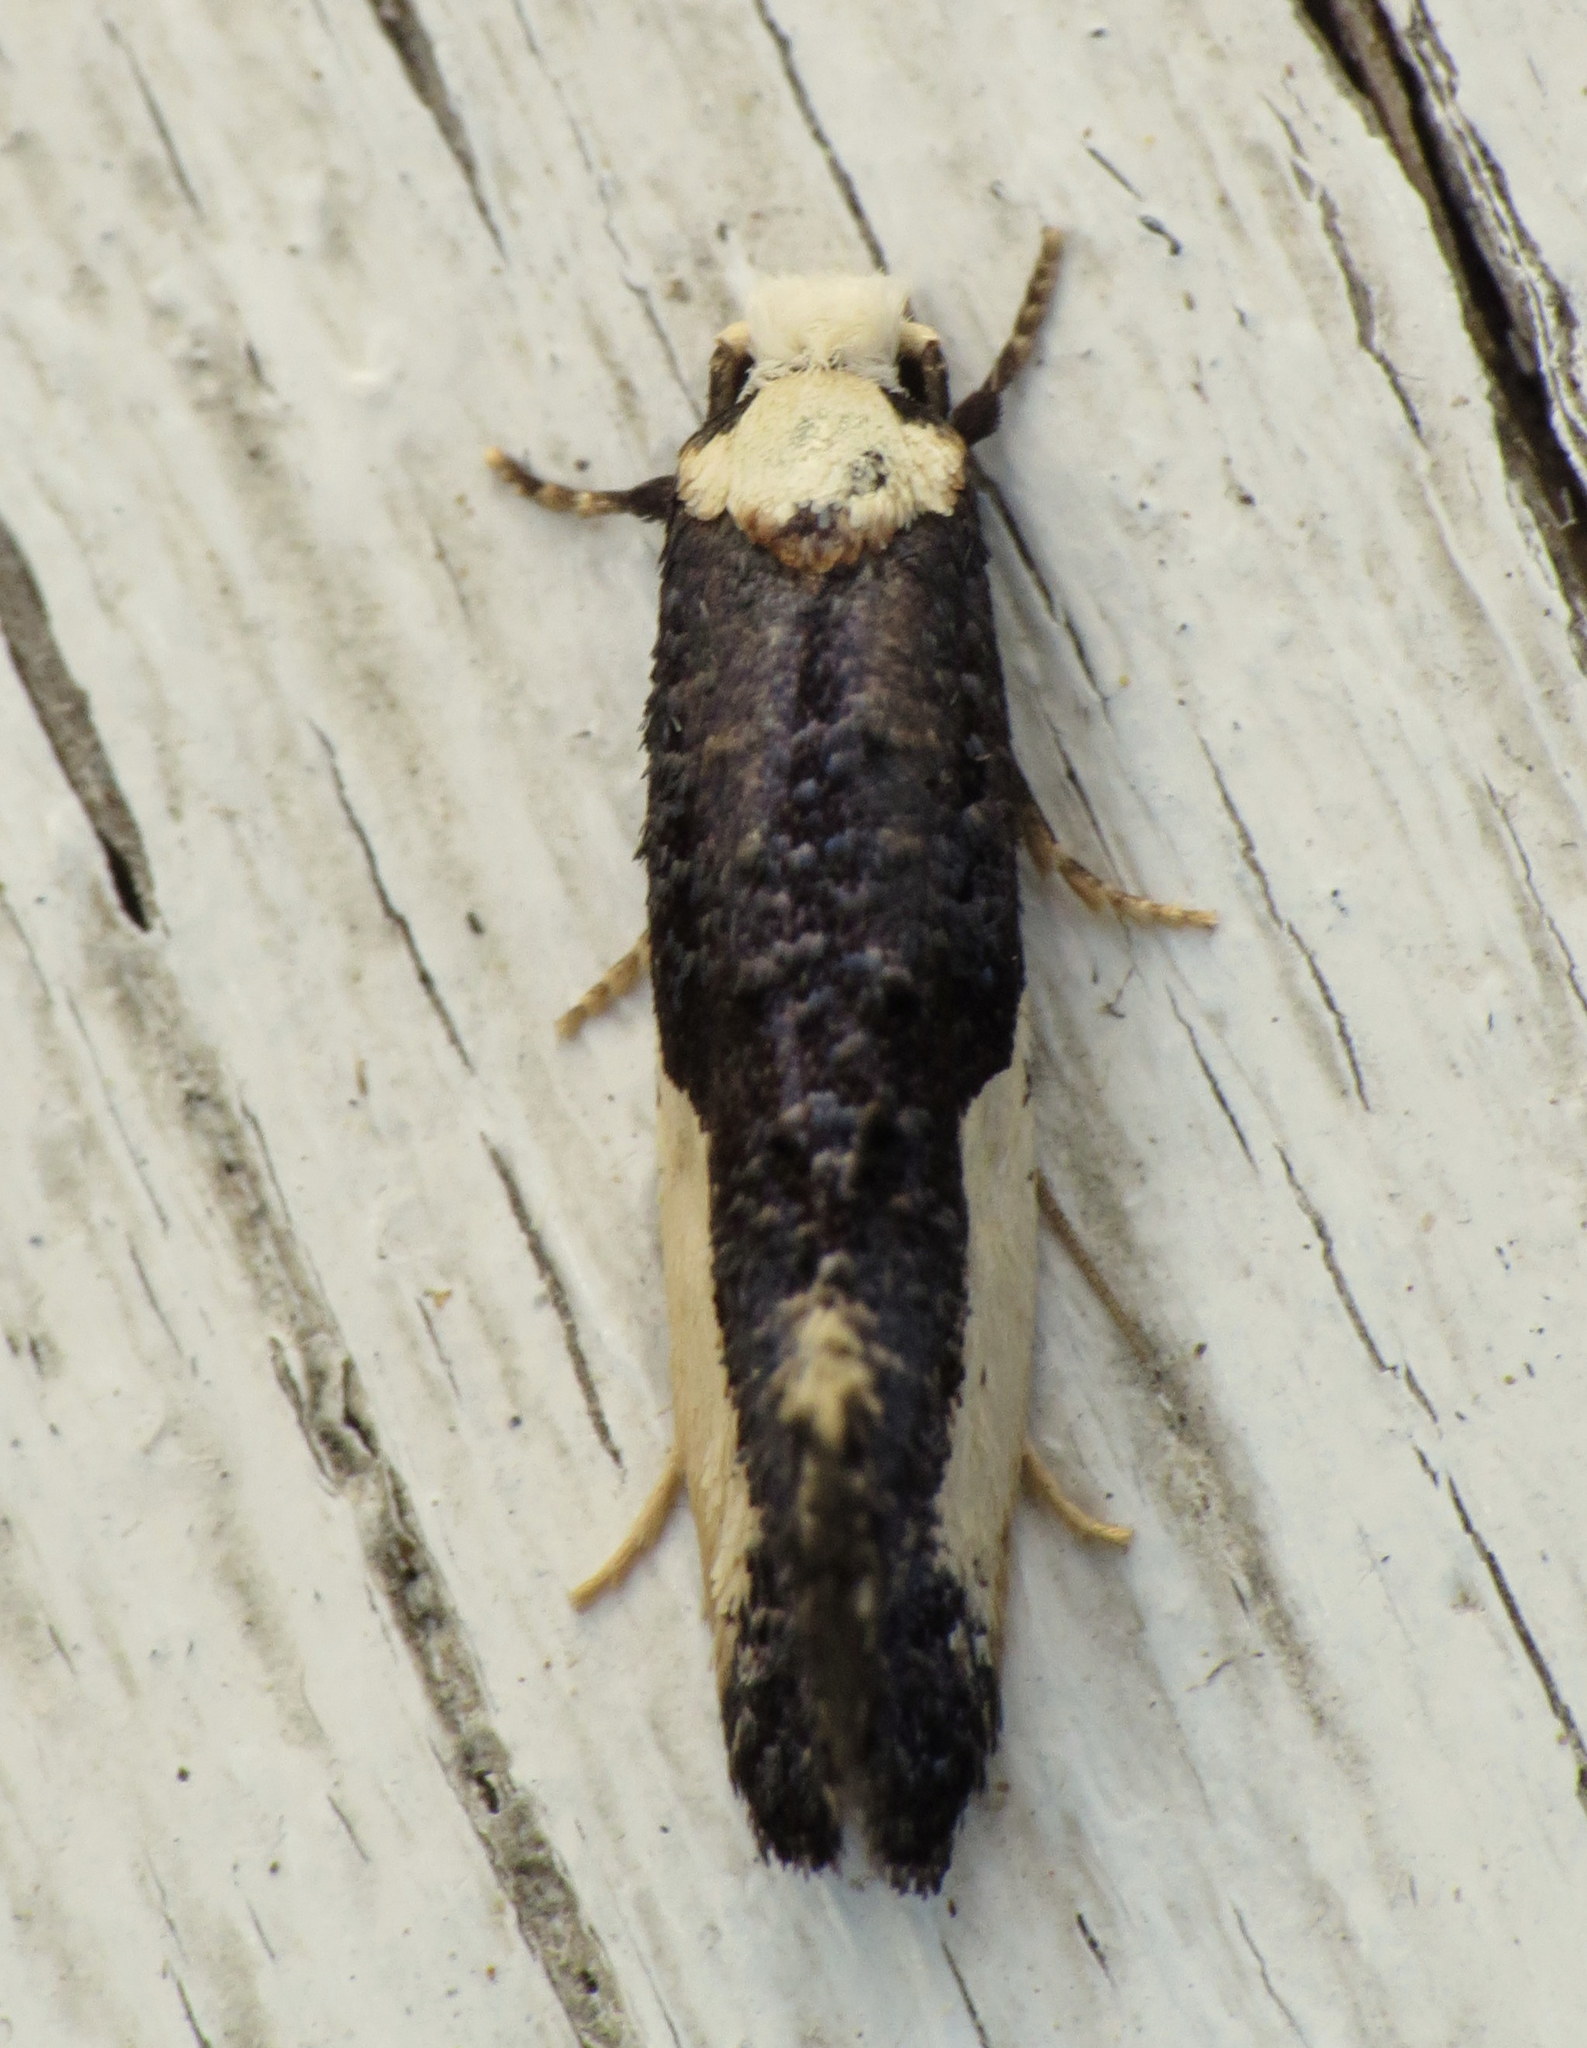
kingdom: Animalia
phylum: Arthropoda
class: Insecta
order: Lepidoptera
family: Tineidae
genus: Monopis
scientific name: Monopis monachella
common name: Moth
